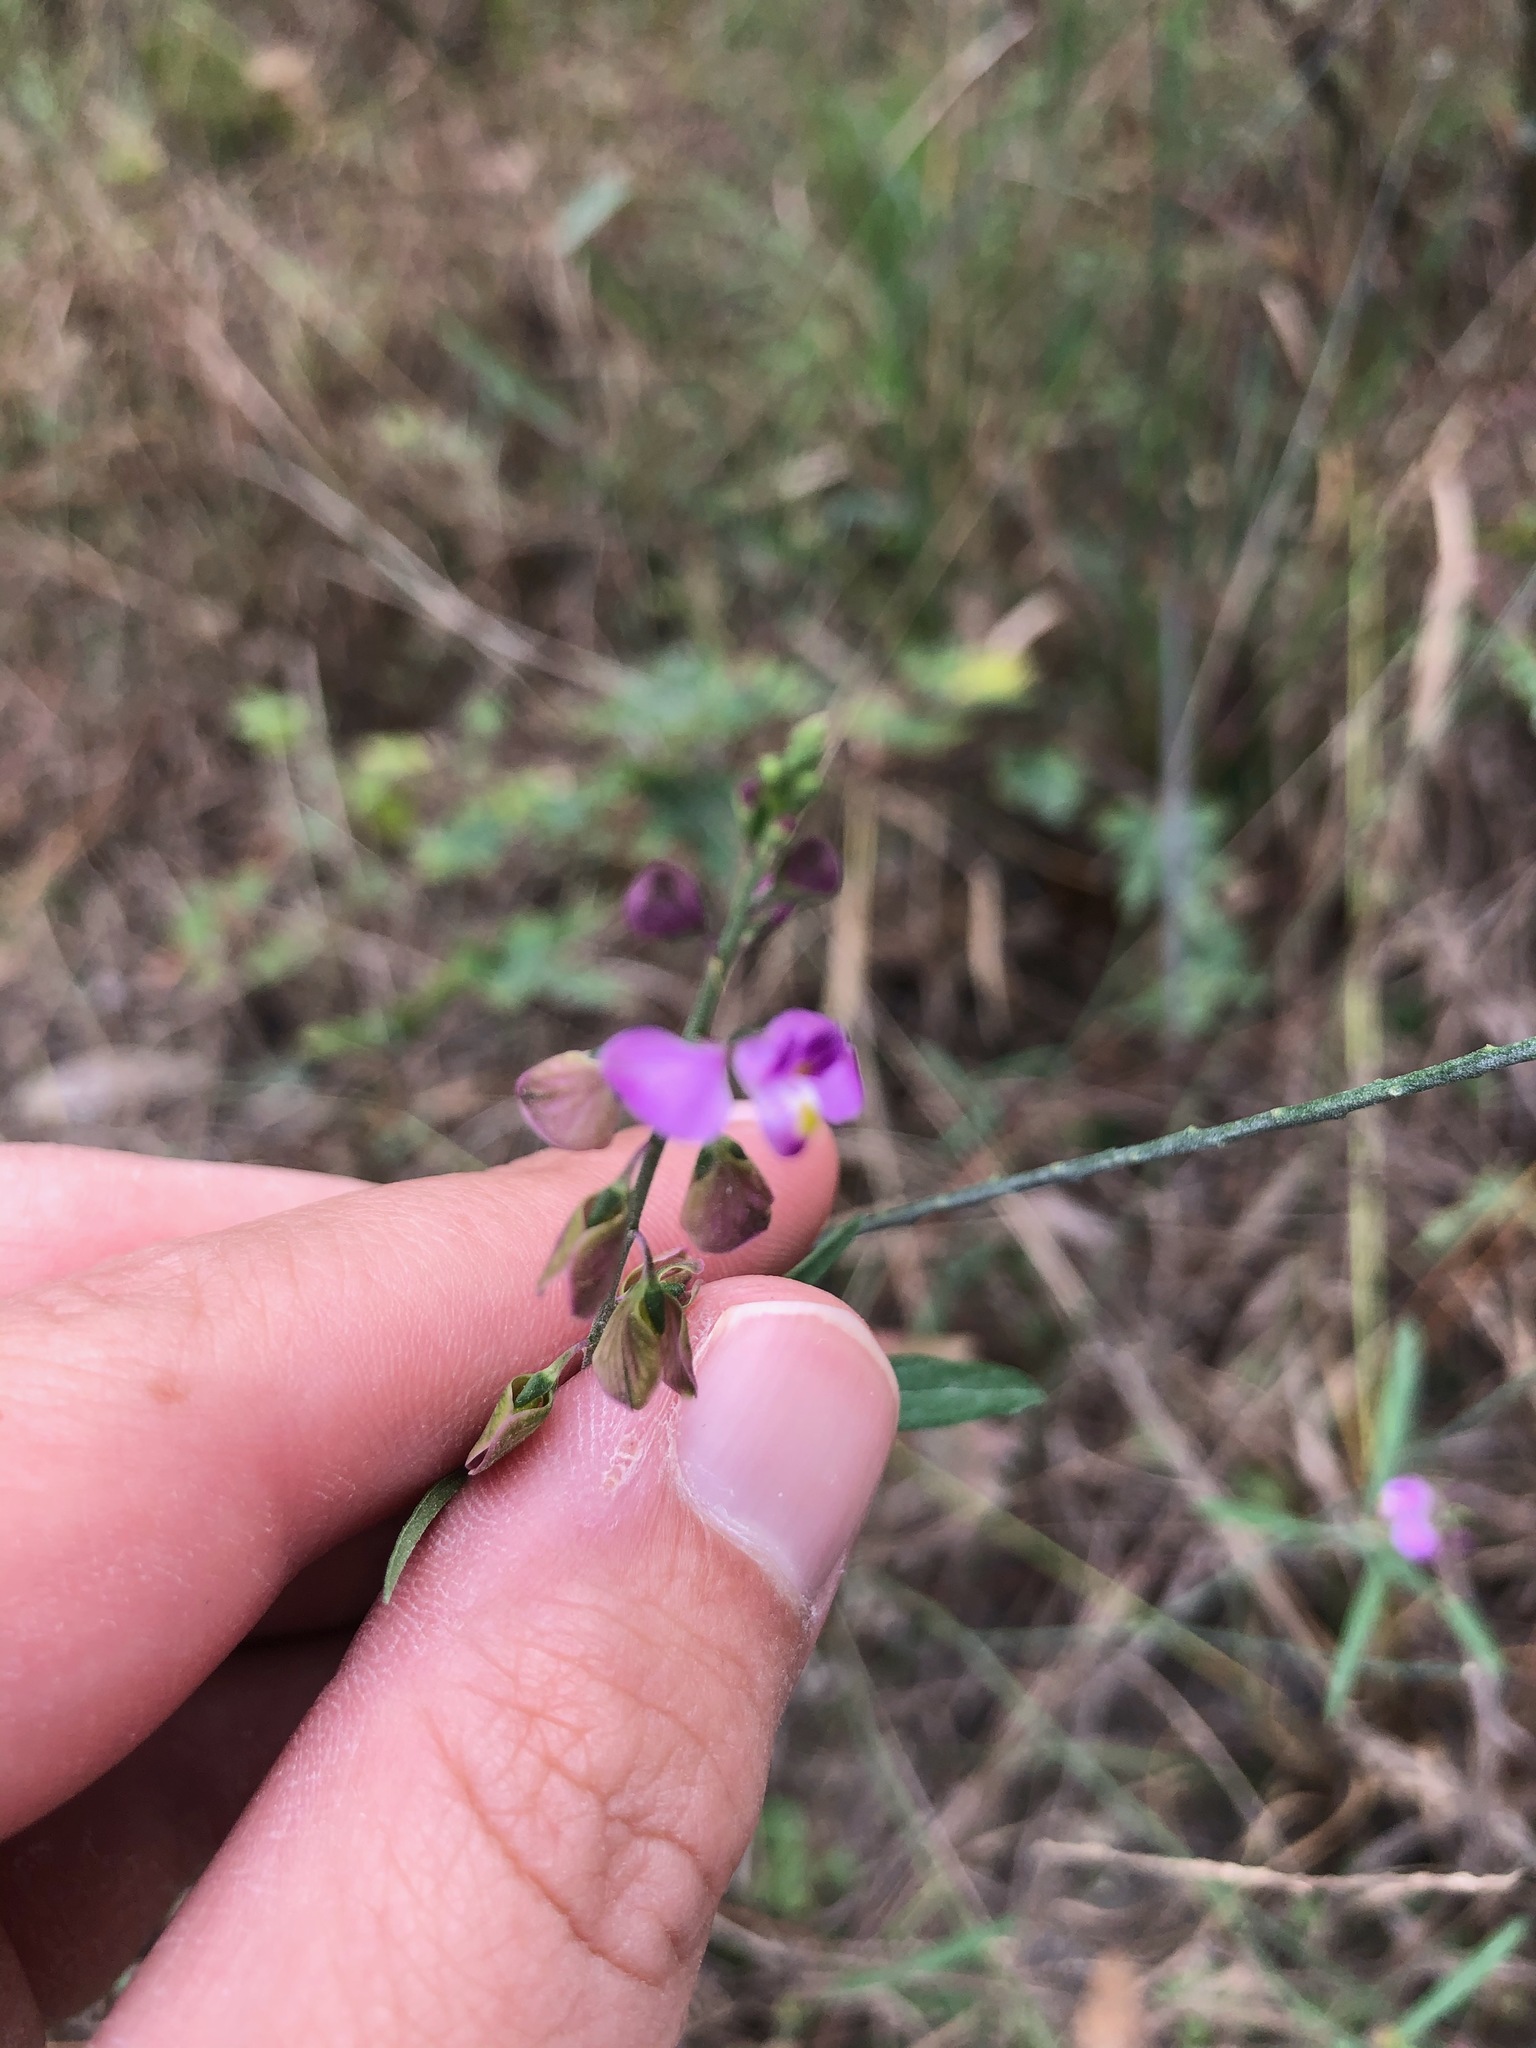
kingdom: Plantae
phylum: Tracheophyta
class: Magnoliopsida
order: Fabales
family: Polygalaceae
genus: Asemeia
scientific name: Asemeia grandiflora
